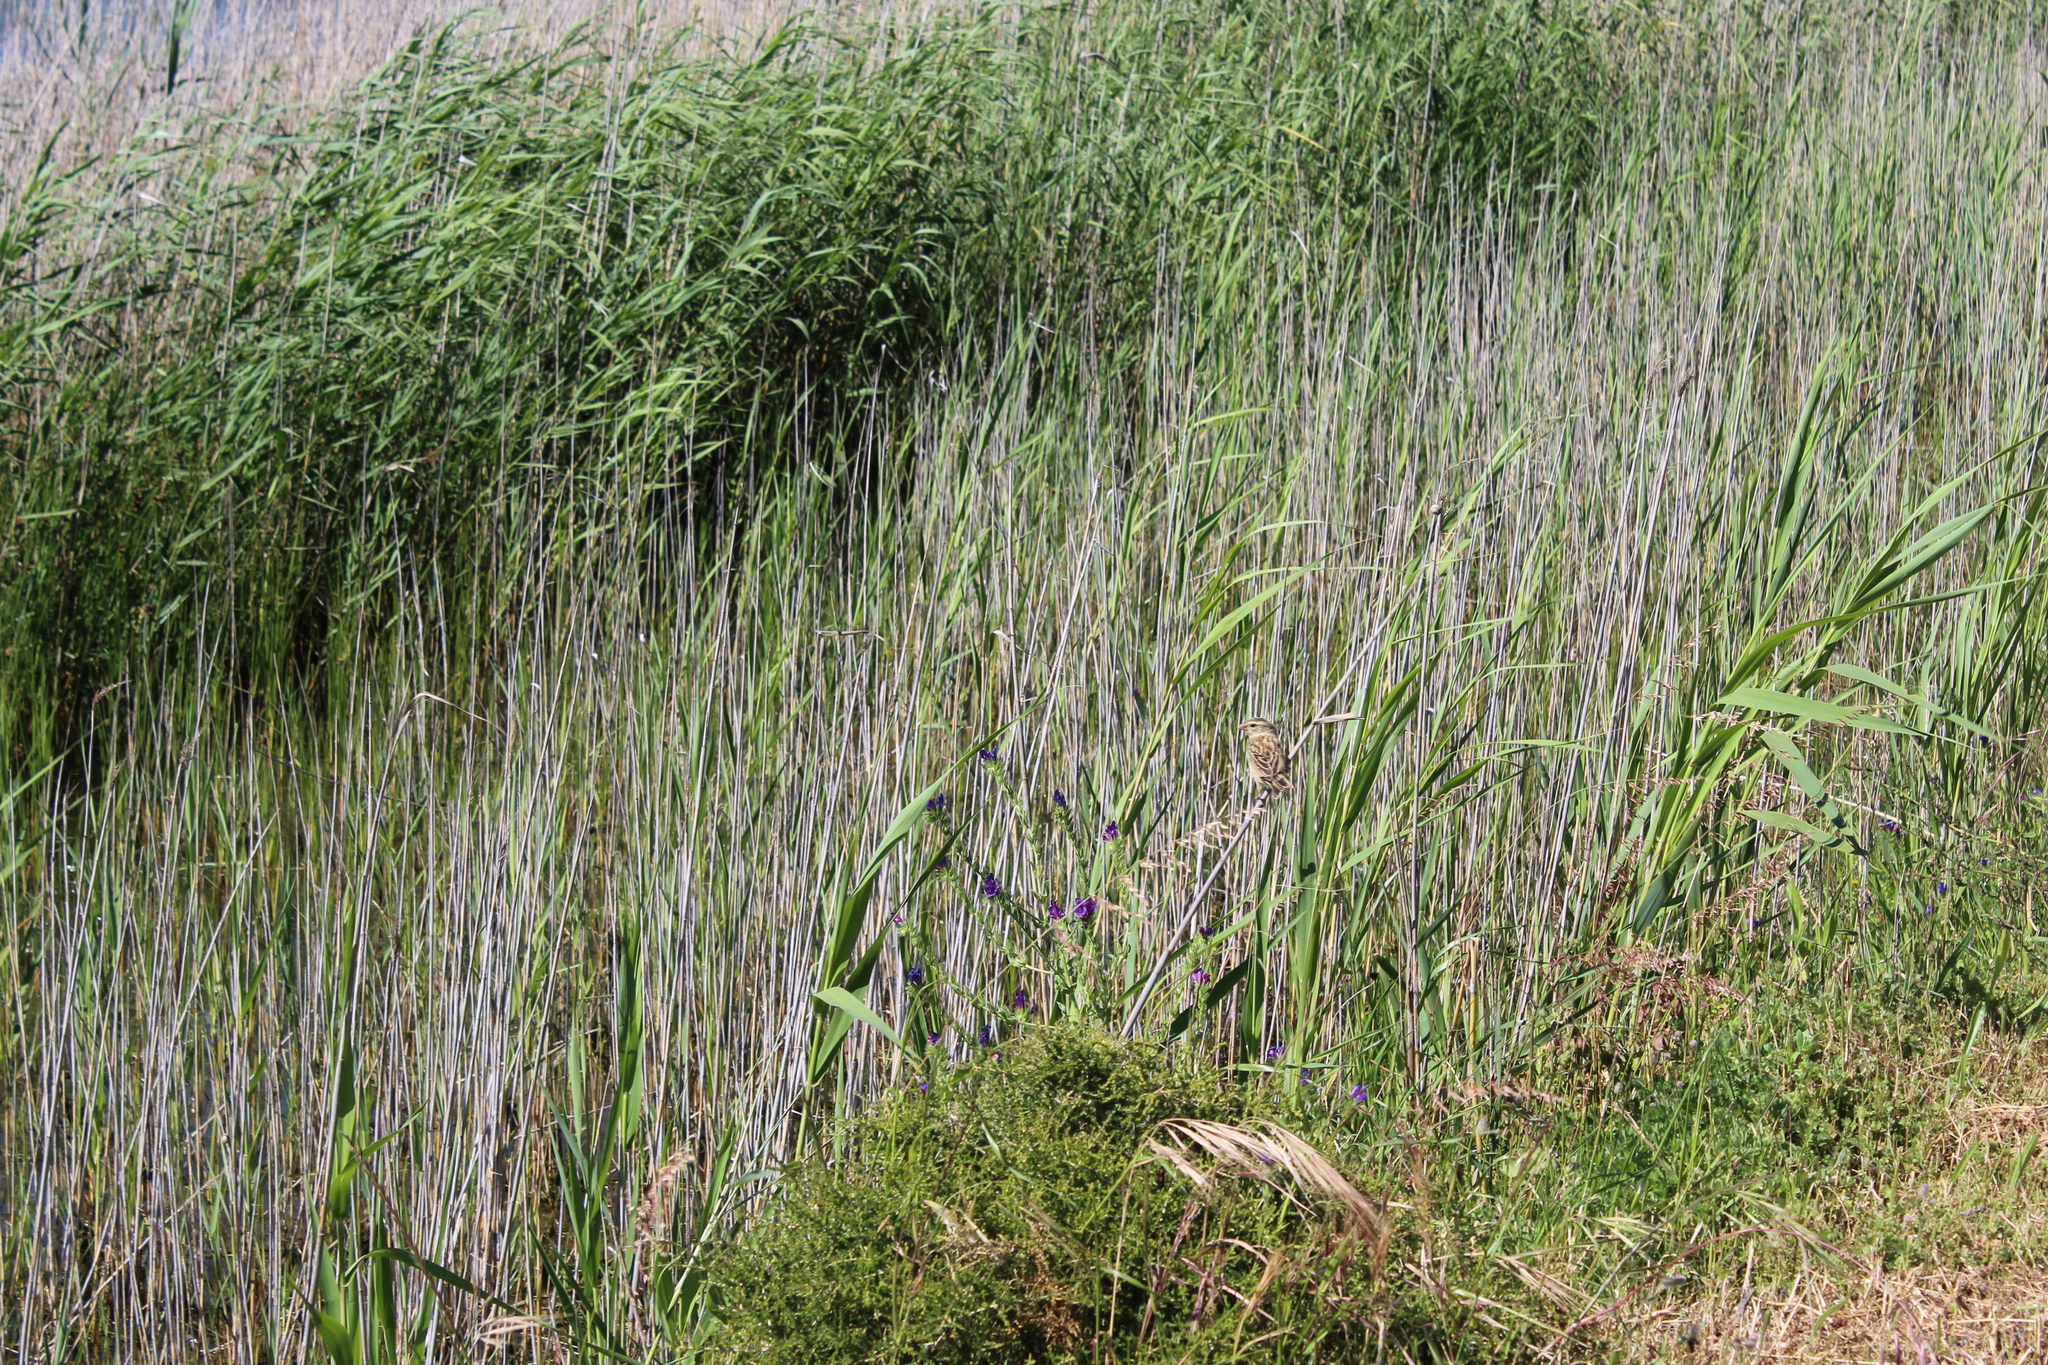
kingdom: Animalia
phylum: Chordata
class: Aves
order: Passeriformes
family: Cisticolidae
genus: Prinia
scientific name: Prinia maculosa
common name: Karoo prinia
